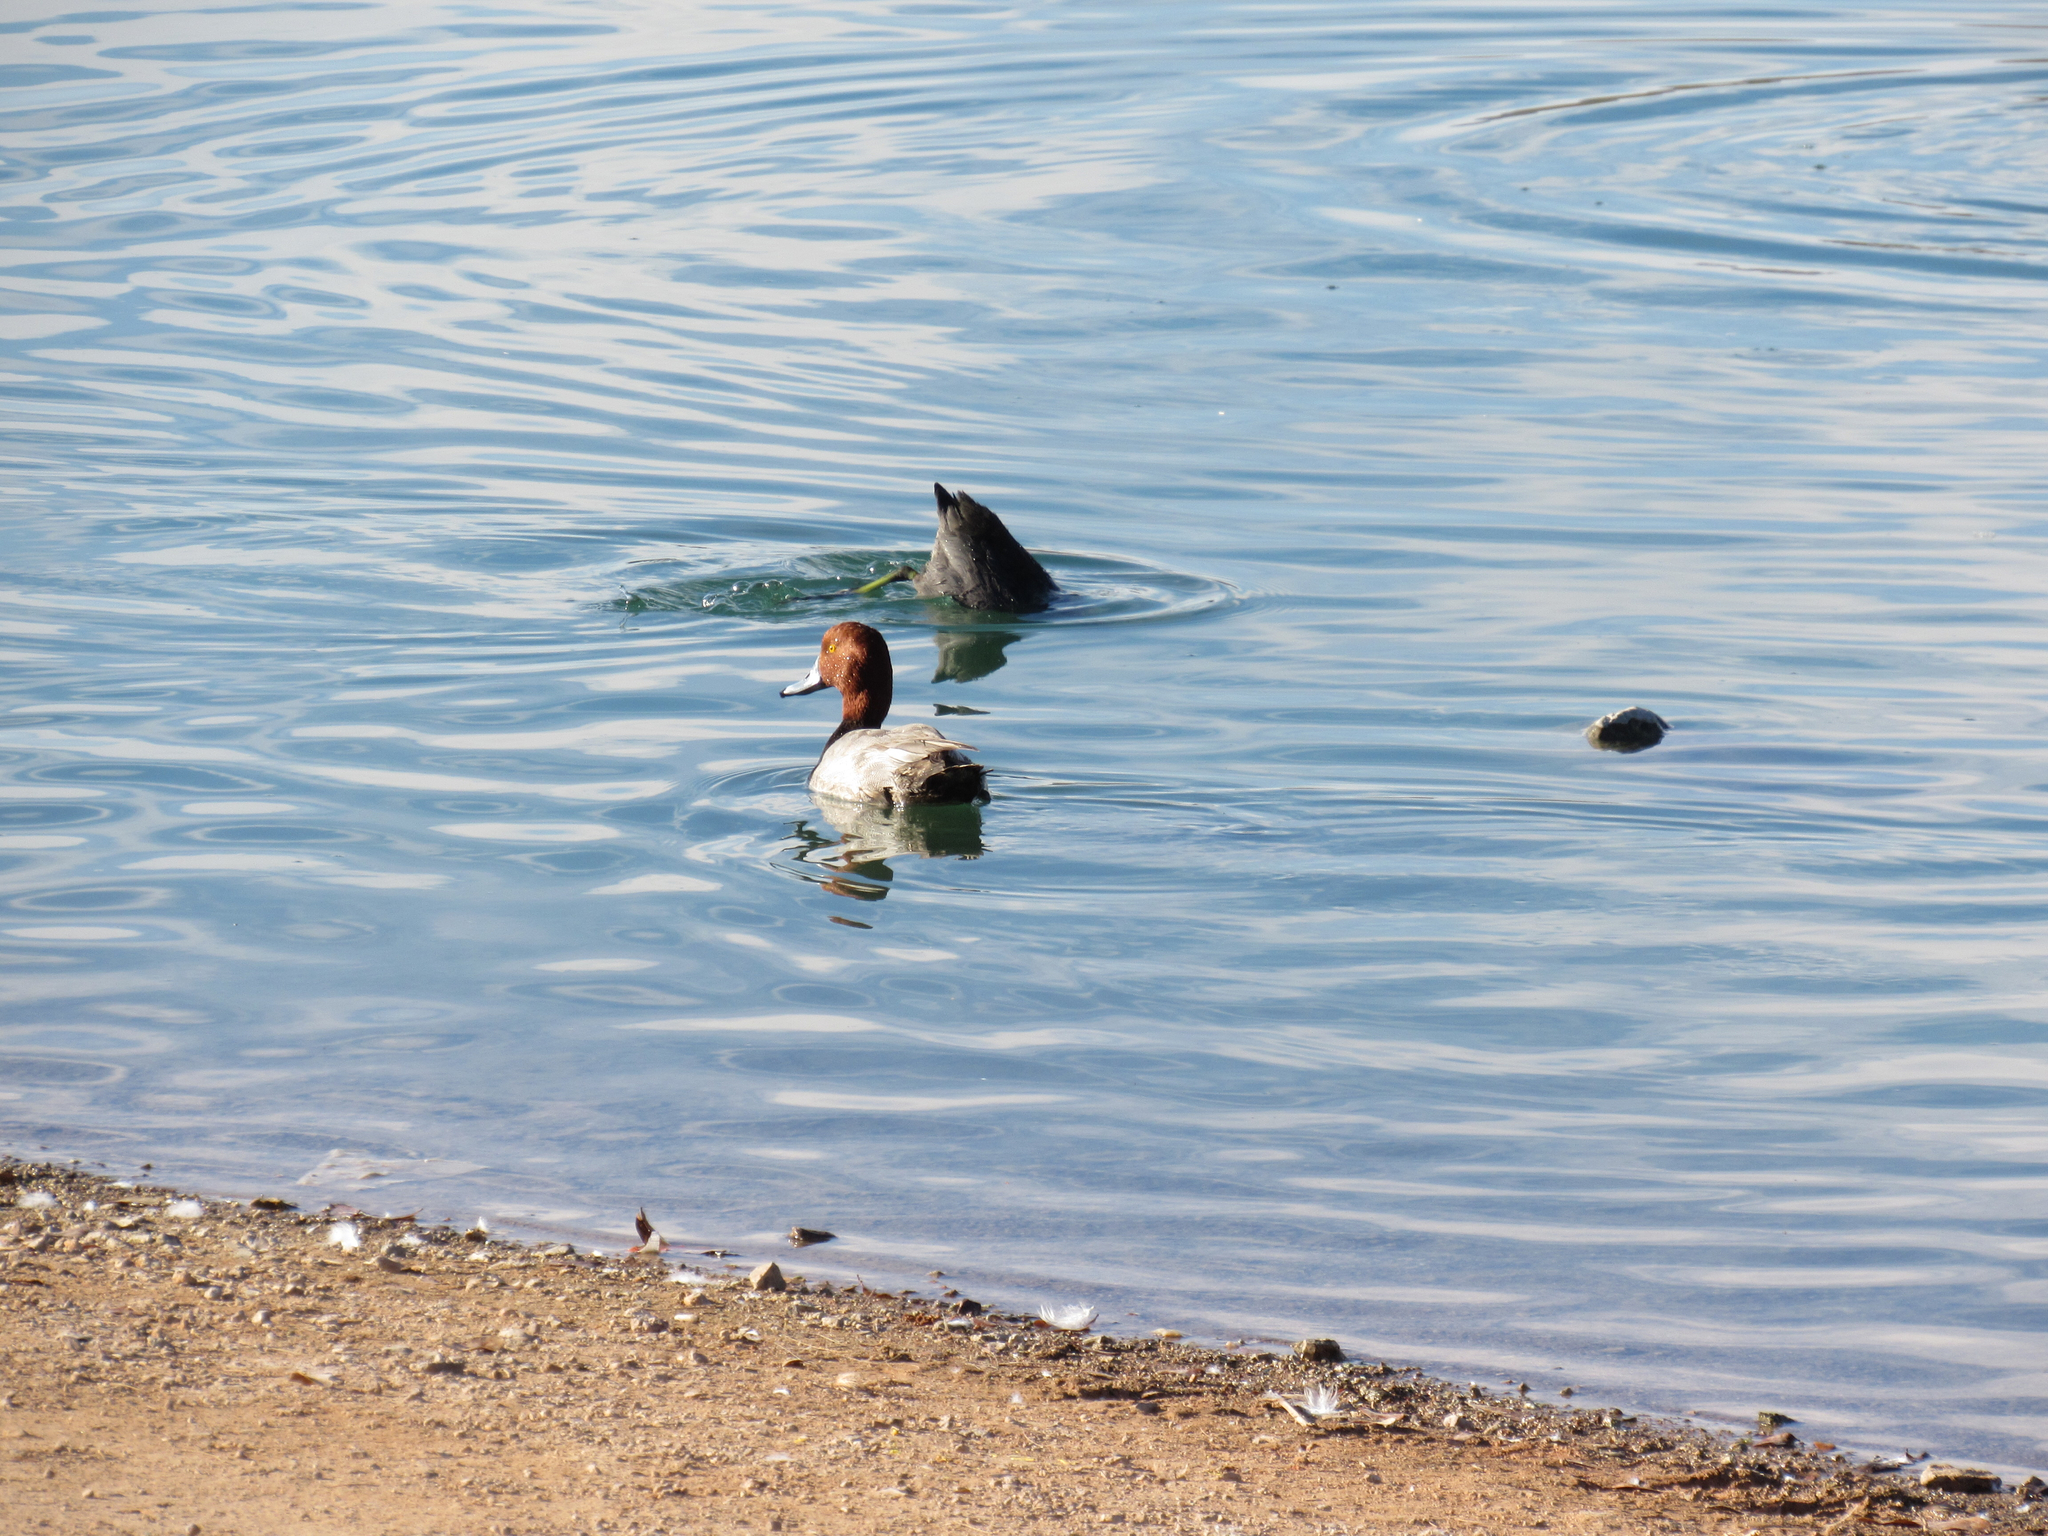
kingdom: Animalia
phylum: Chordata
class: Aves
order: Anseriformes
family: Anatidae
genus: Aythya
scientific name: Aythya americana
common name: Redhead
